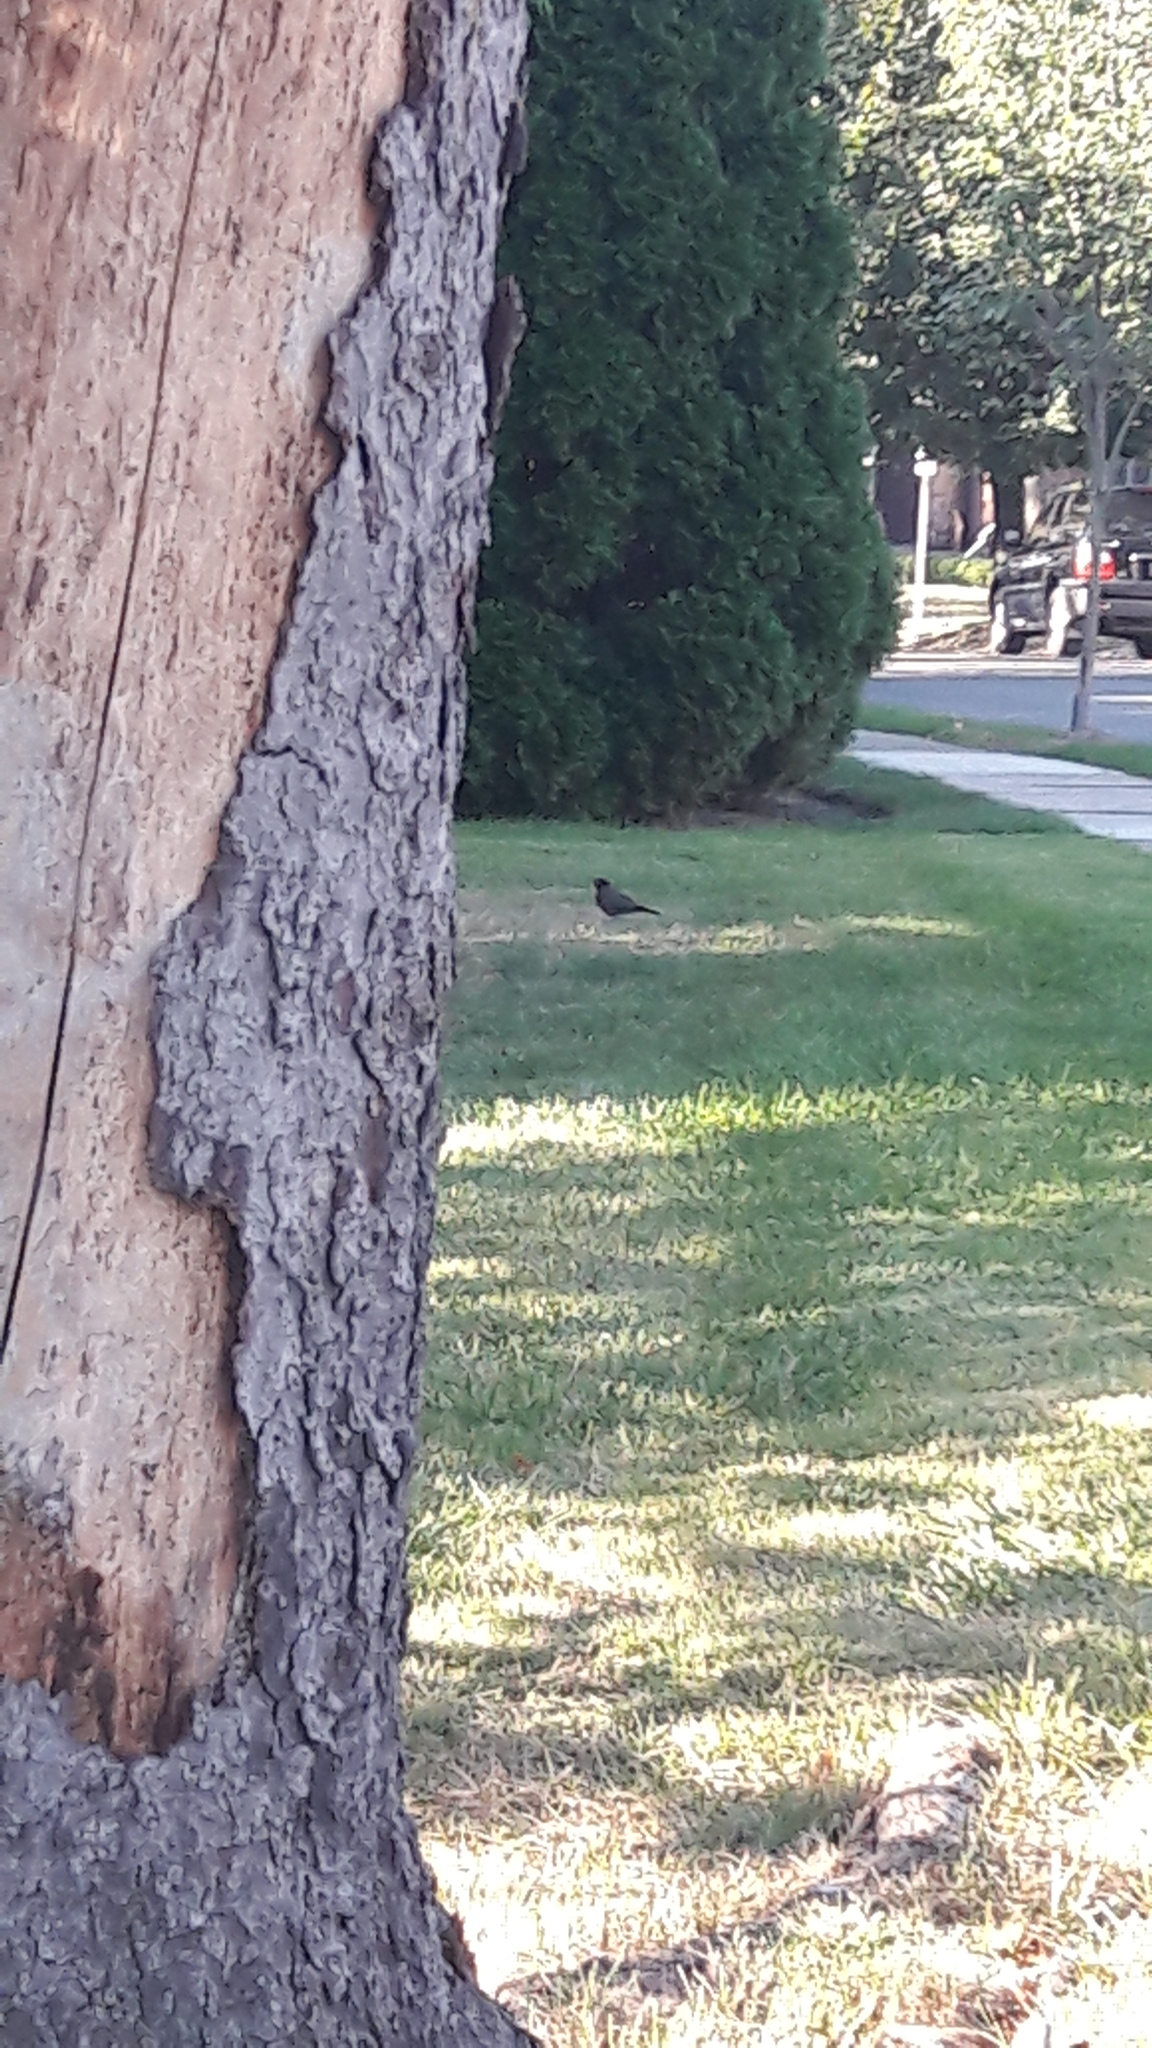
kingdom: Animalia
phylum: Chordata
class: Aves
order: Passeriformes
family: Turdidae
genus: Turdus
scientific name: Turdus migratorius
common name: American robin
